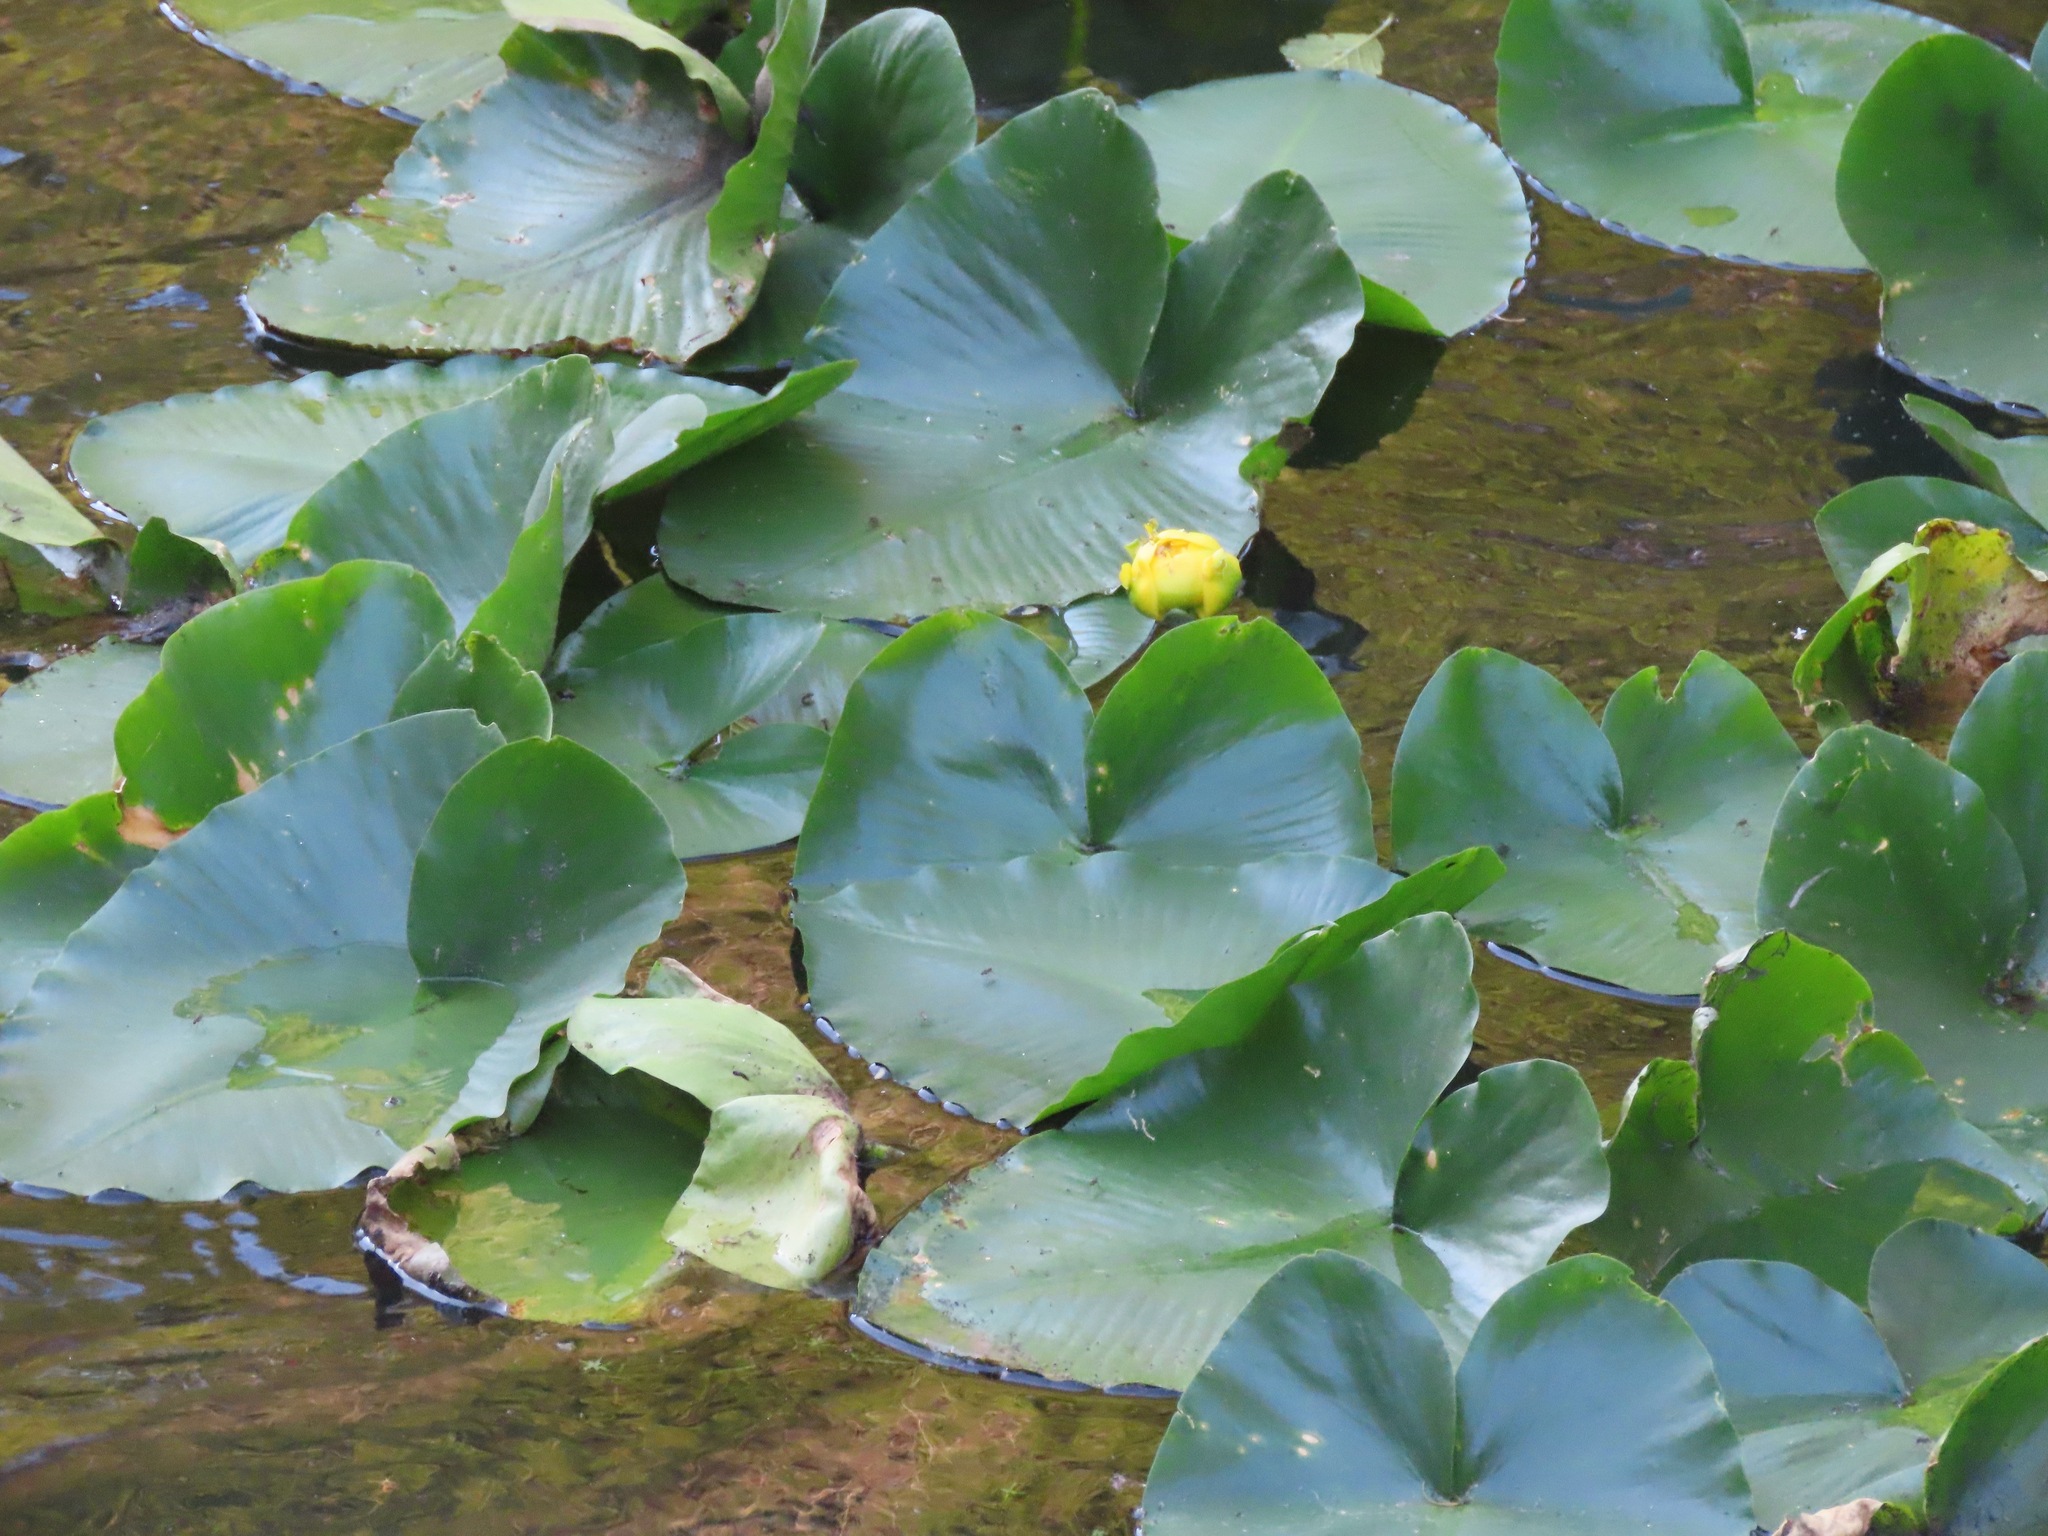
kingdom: Plantae
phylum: Tracheophyta
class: Magnoliopsida
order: Nymphaeales
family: Nymphaeaceae
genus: Nuphar
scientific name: Nuphar polysepala
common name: Rocky mountain cow-lily
